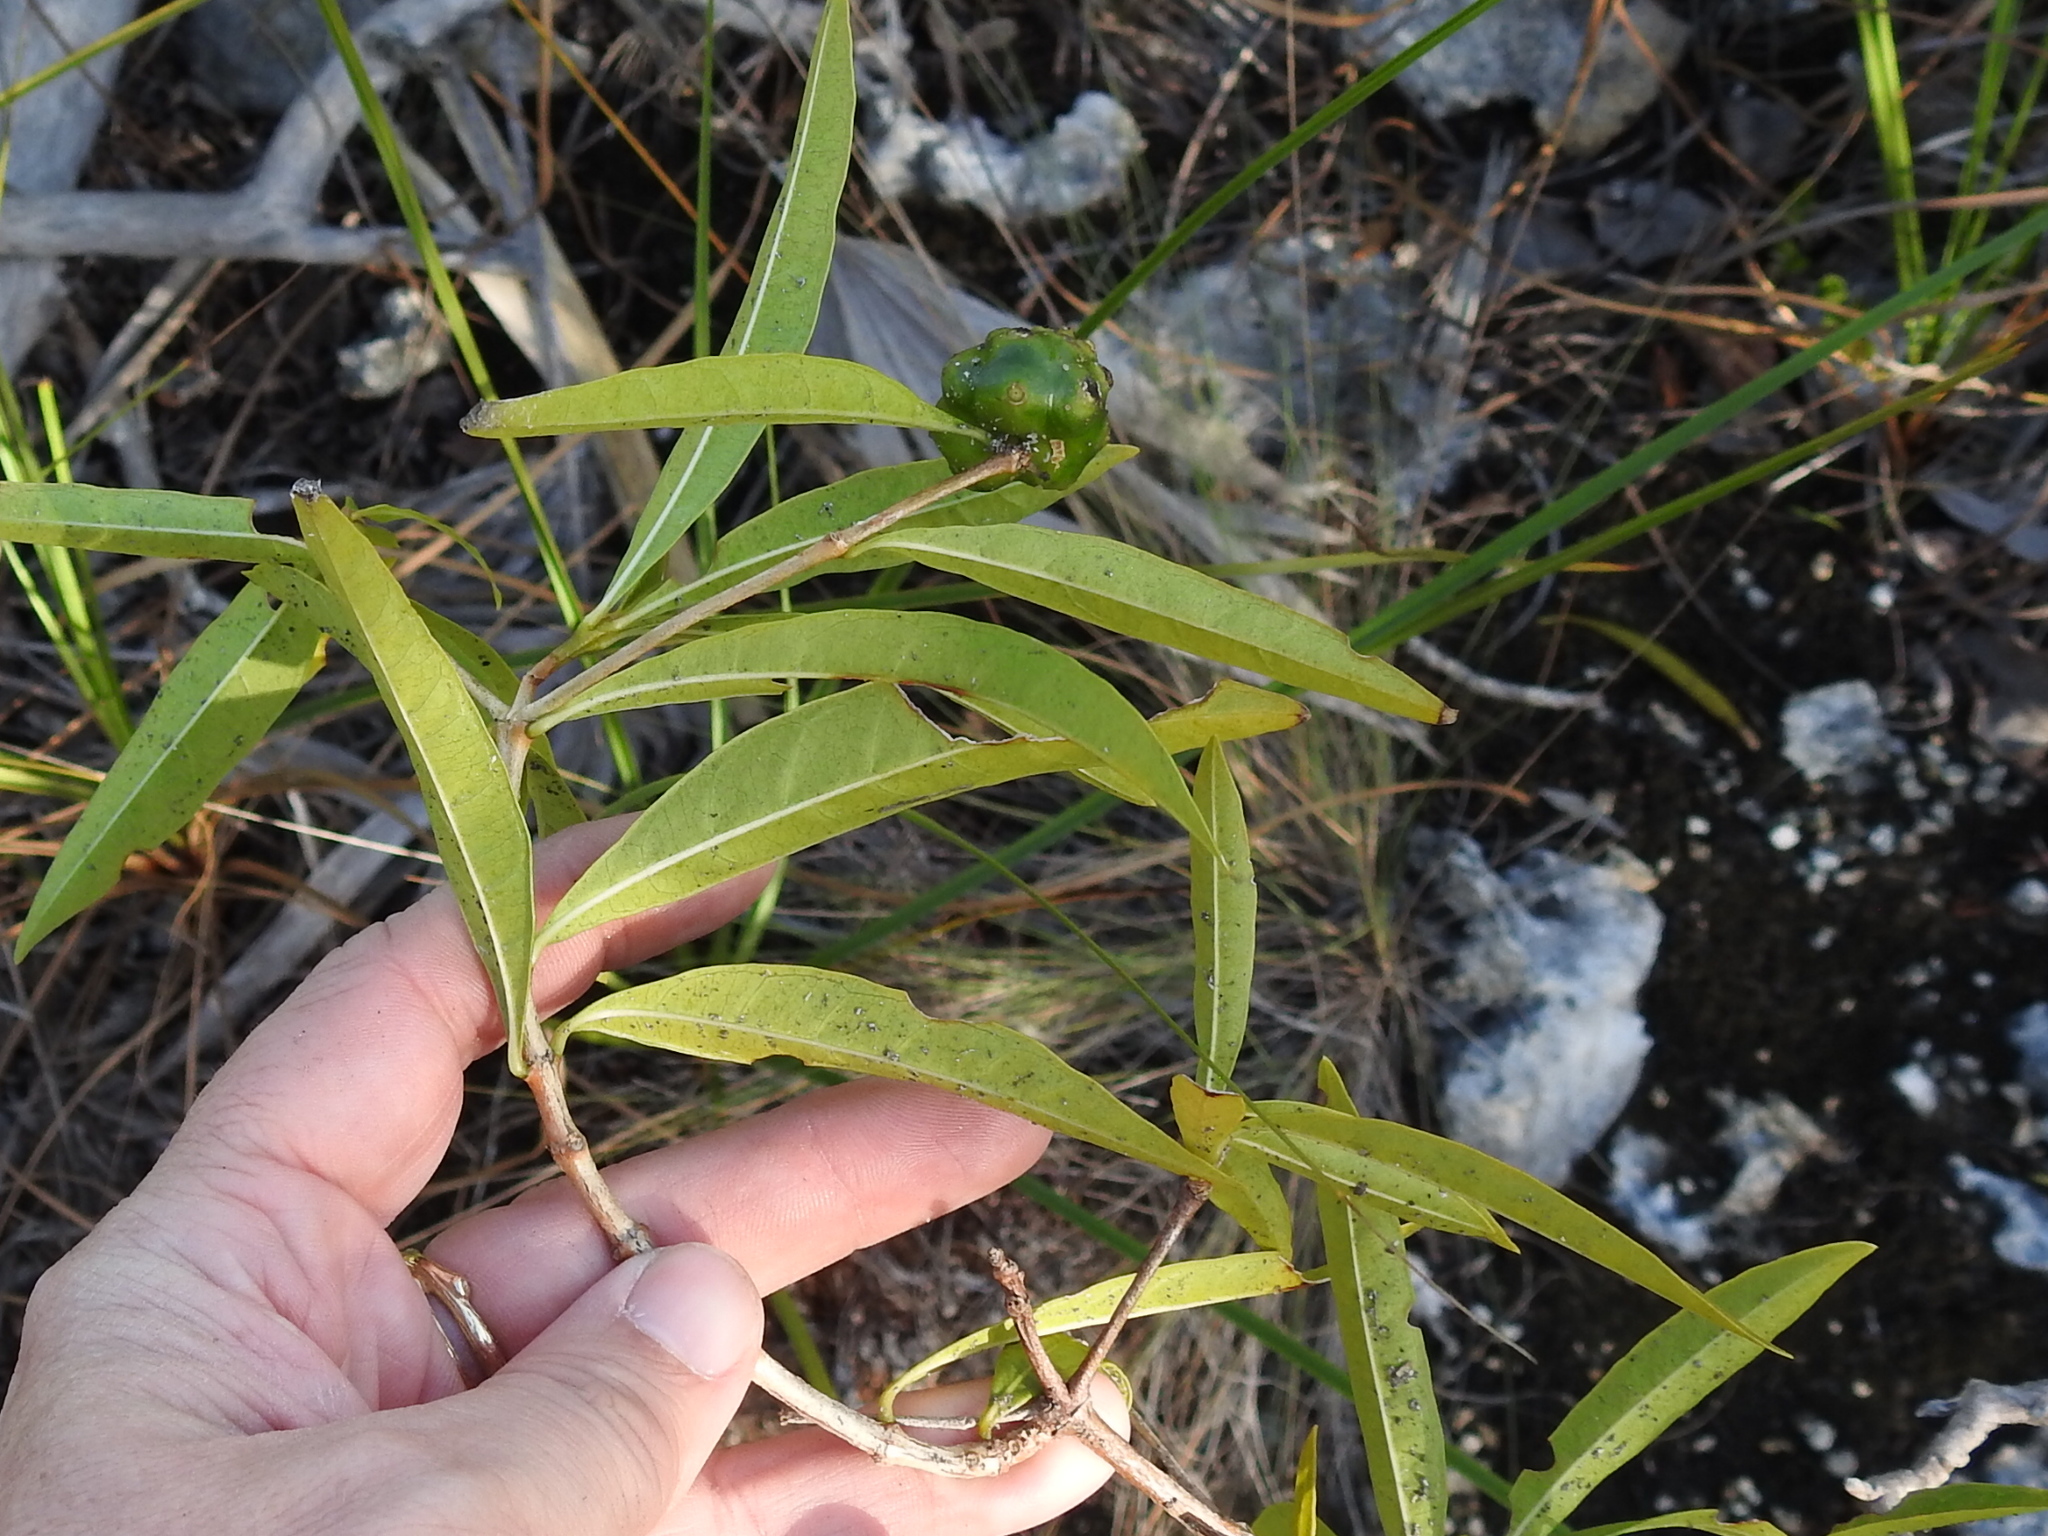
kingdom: Plantae
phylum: Tracheophyta
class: Magnoliopsida
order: Gentianales
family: Rubiaceae
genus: Morinda
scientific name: Morinda royoc
